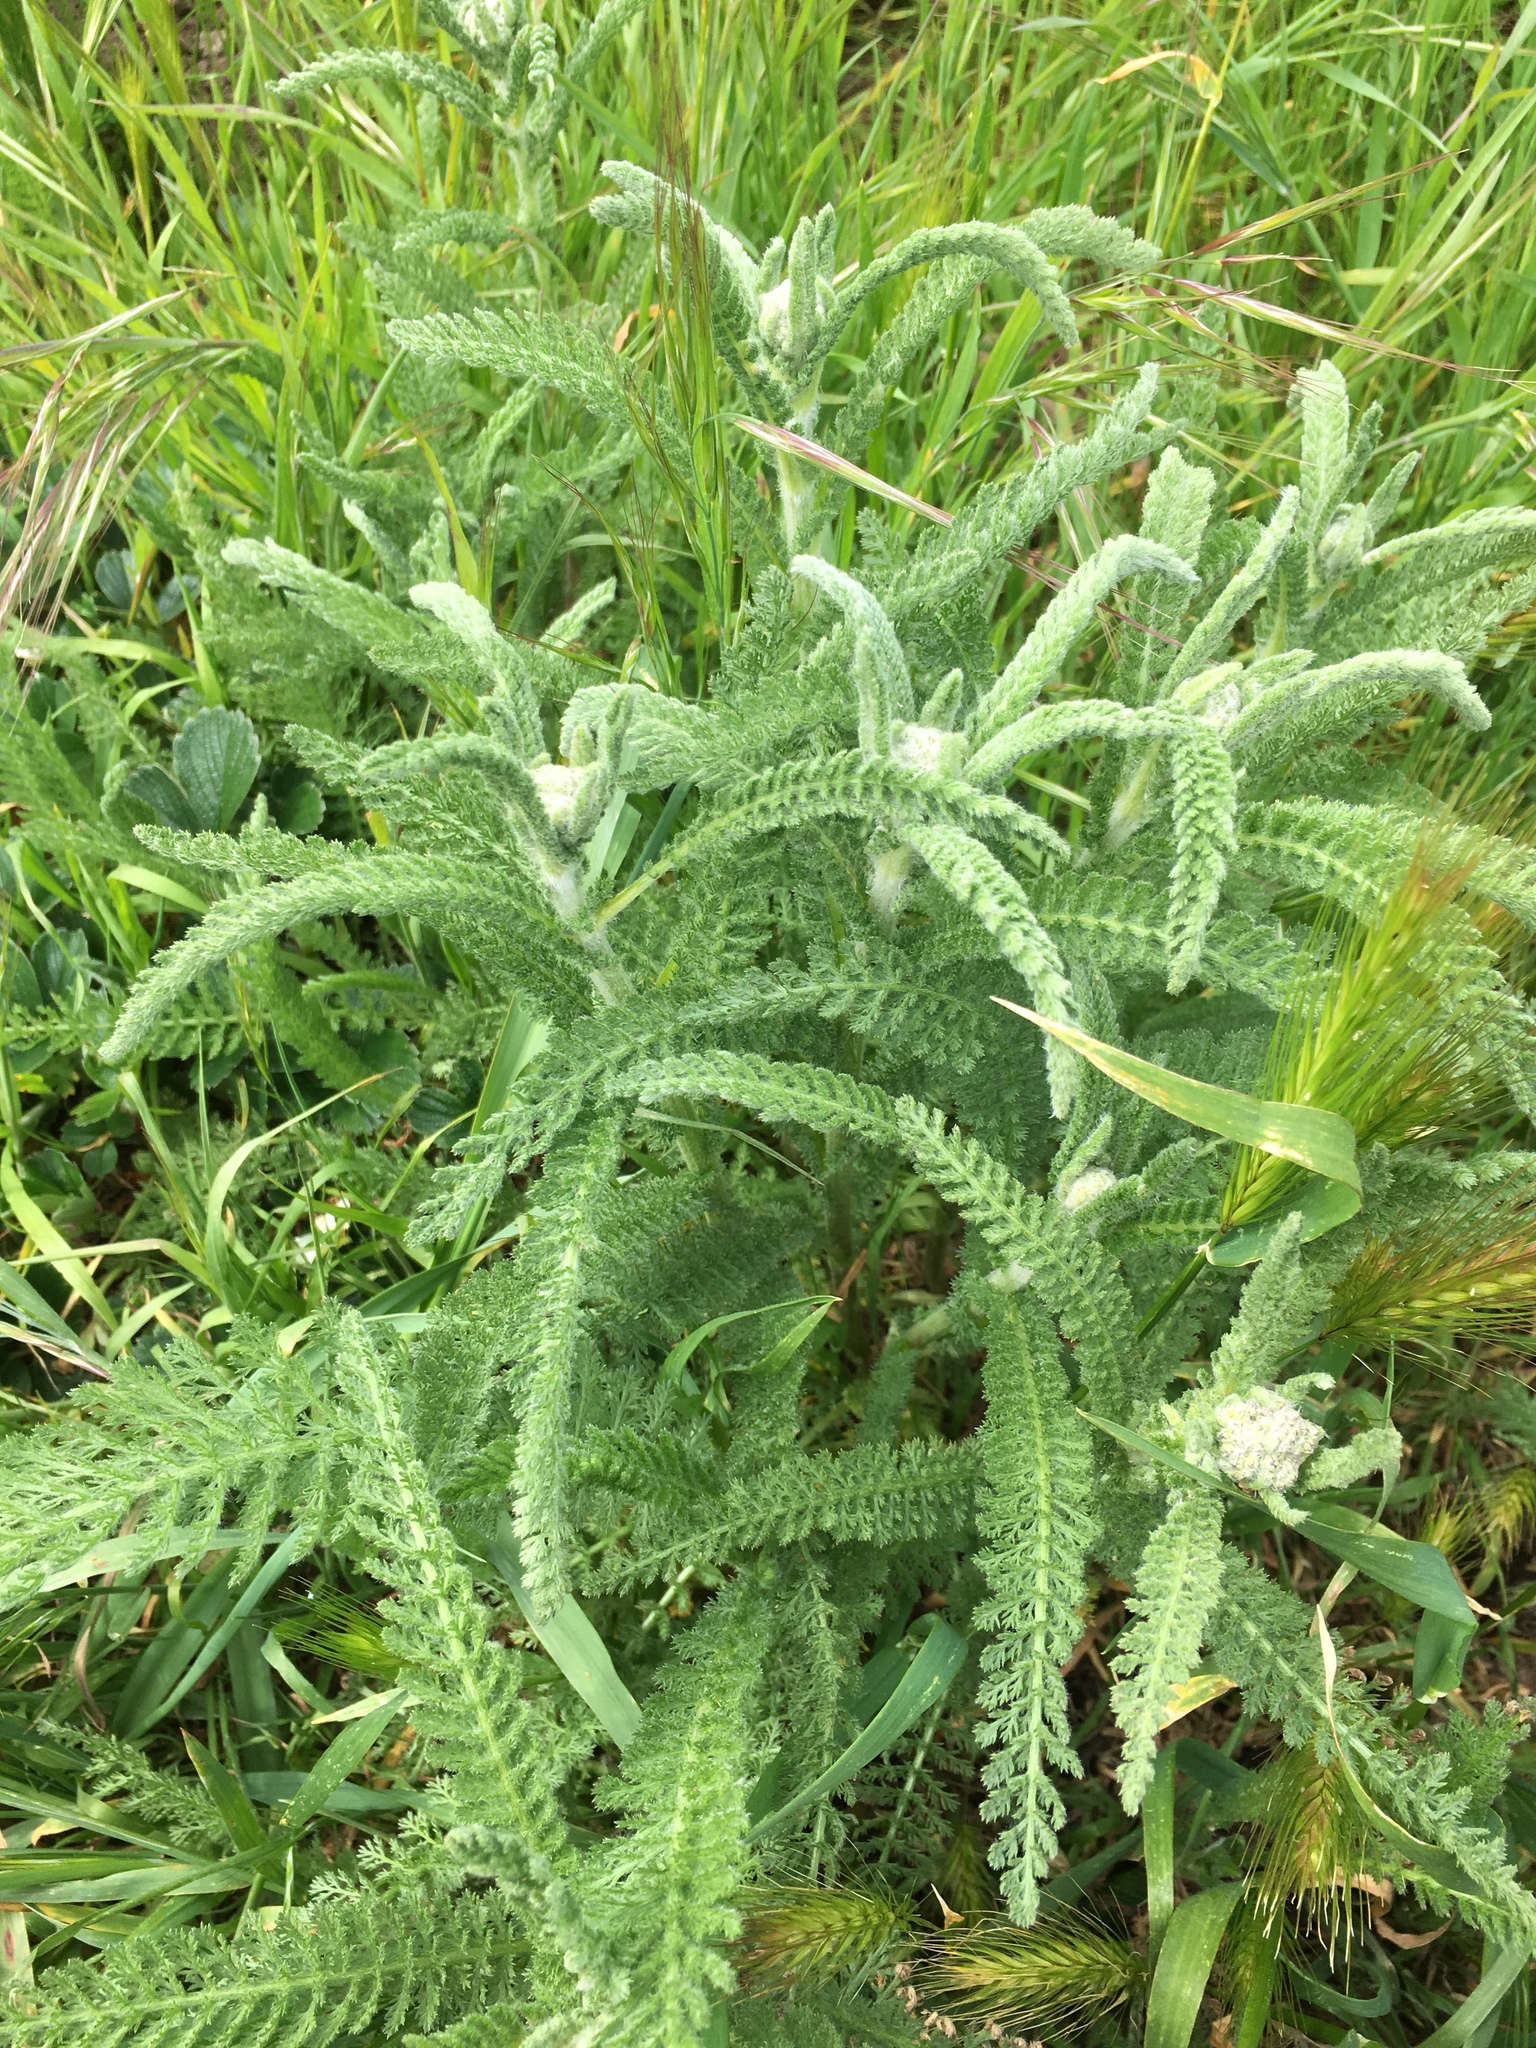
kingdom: Plantae
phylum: Tracheophyta
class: Magnoliopsida
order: Asterales
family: Asteraceae
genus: Achillea
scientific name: Achillea millefolium
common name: Yarrow
